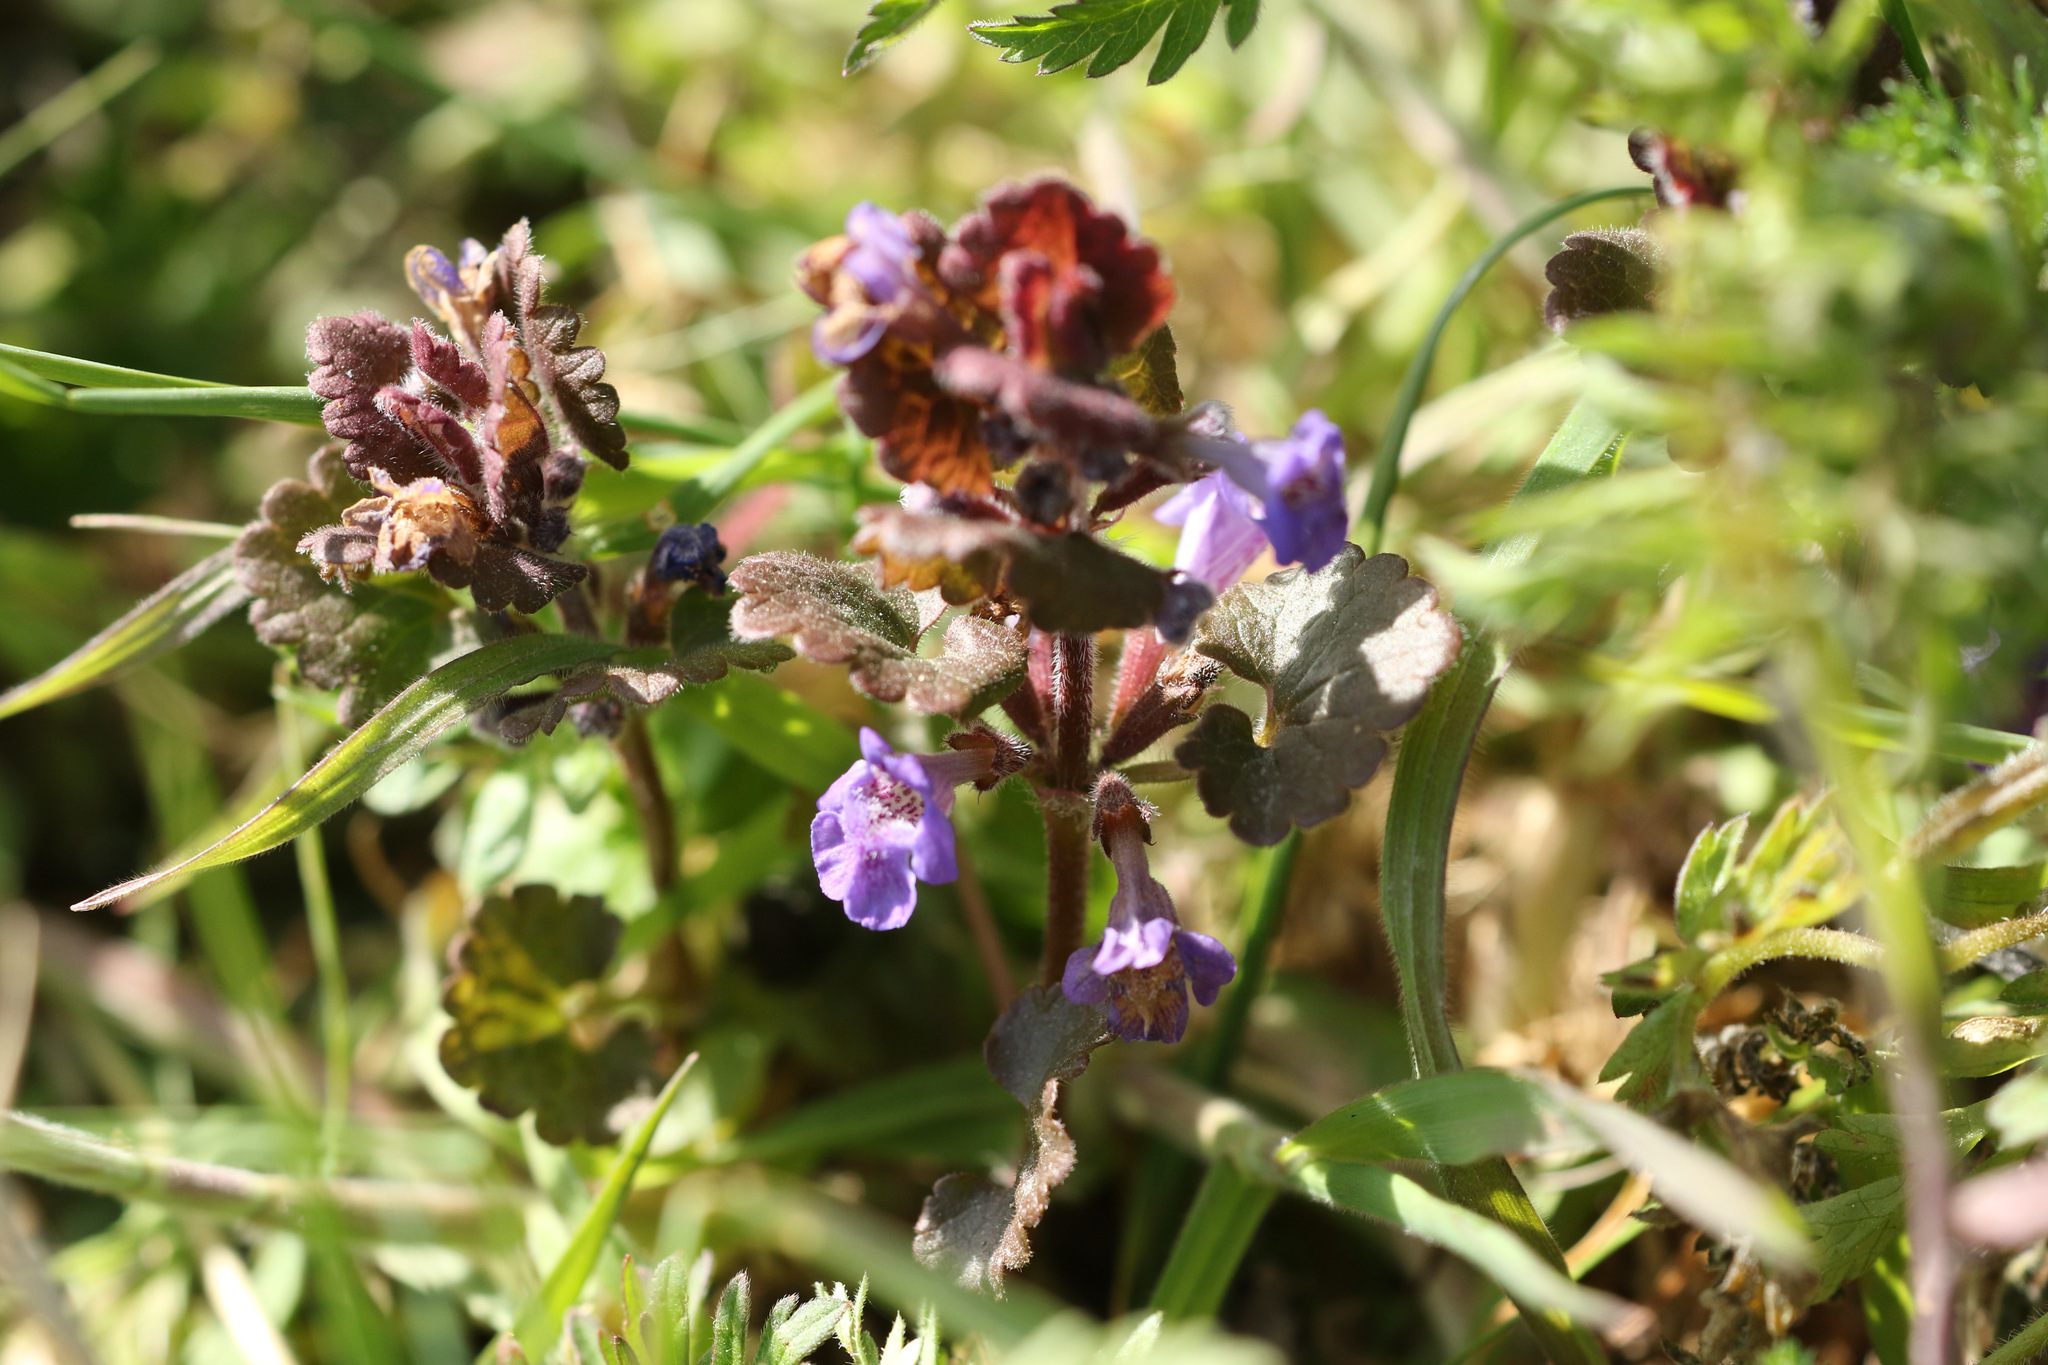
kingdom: Plantae
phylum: Tracheophyta
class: Magnoliopsida
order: Lamiales
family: Lamiaceae
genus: Glechoma
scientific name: Glechoma hederacea
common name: Ground ivy
